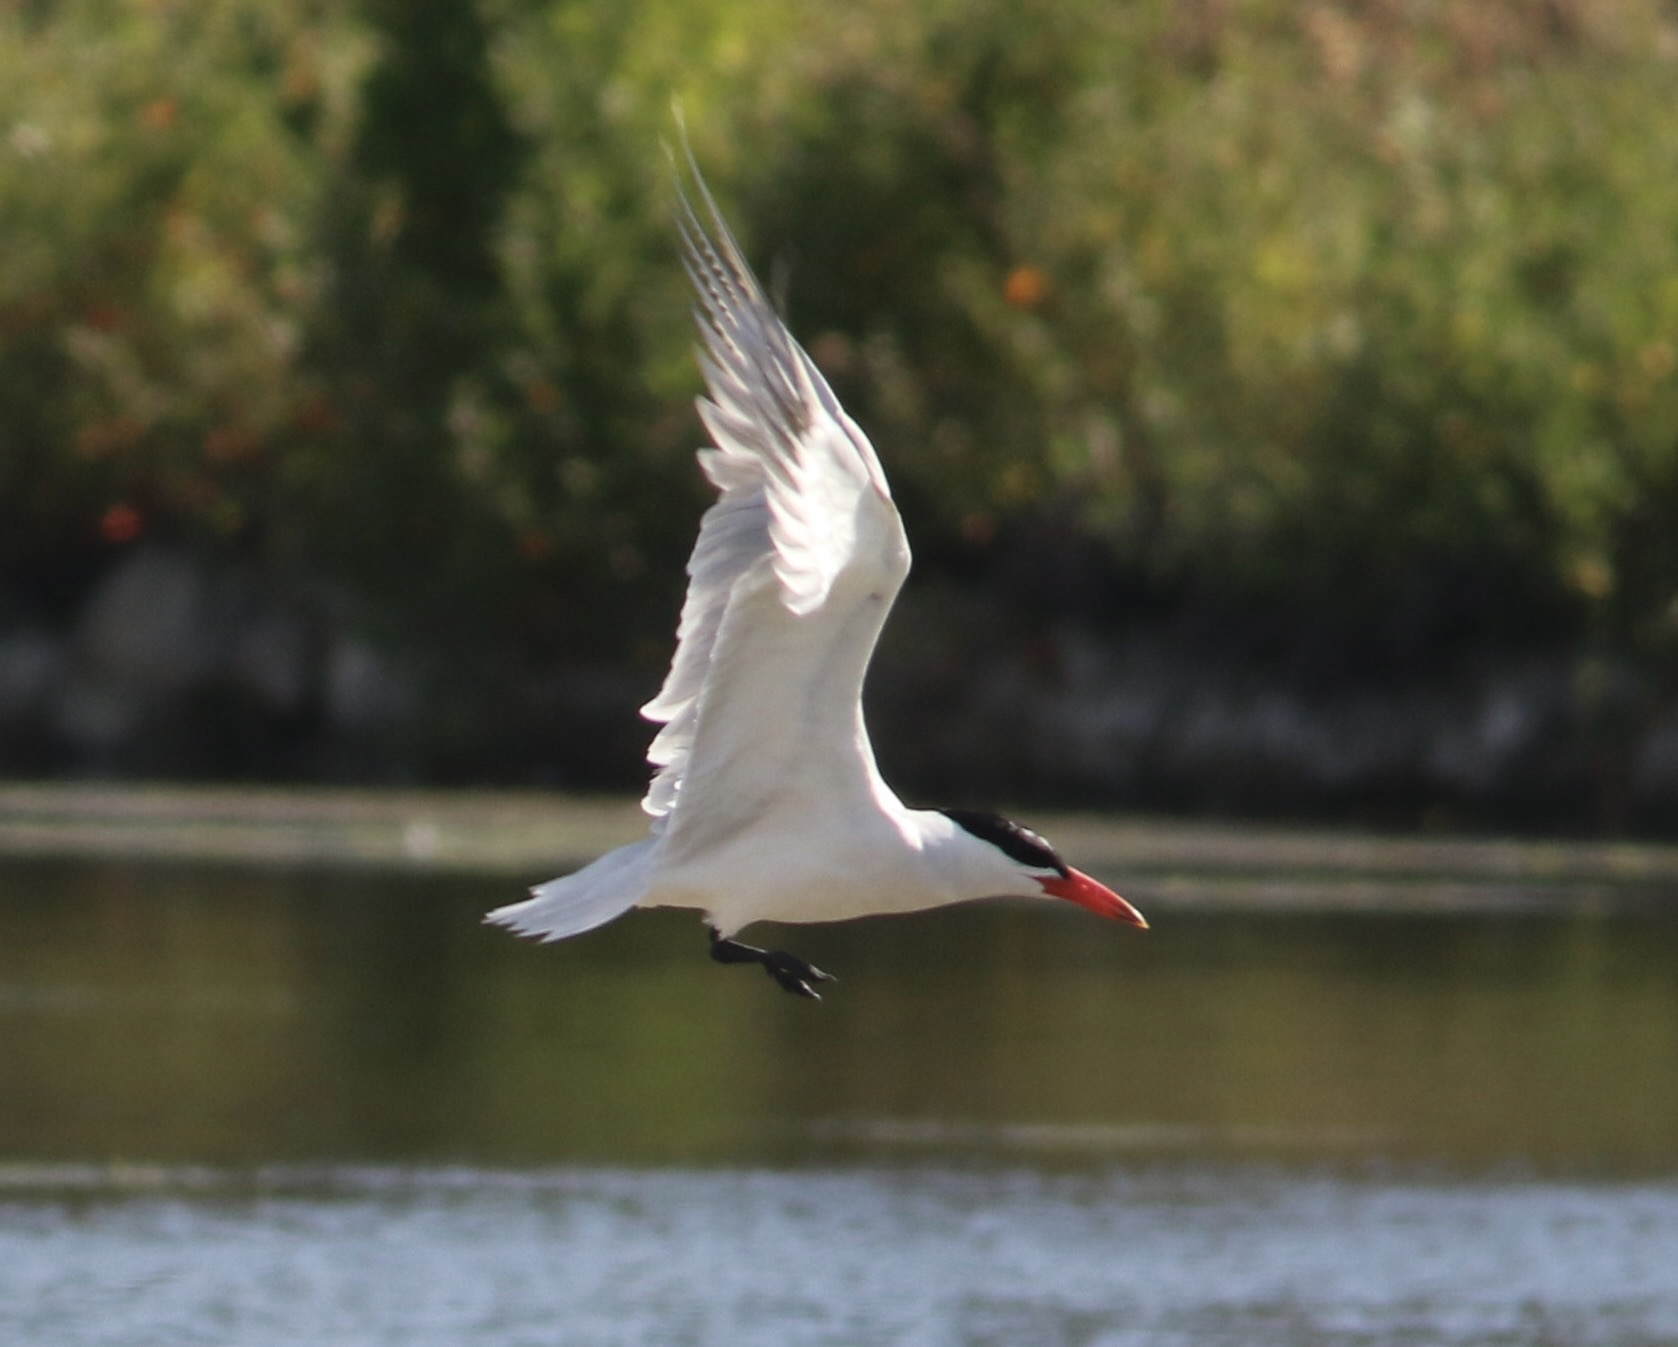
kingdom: Animalia
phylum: Chordata
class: Aves
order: Charadriiformes
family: Laridae
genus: Hydroprogne
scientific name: Hydroprogne caspia
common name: Caspian tern
